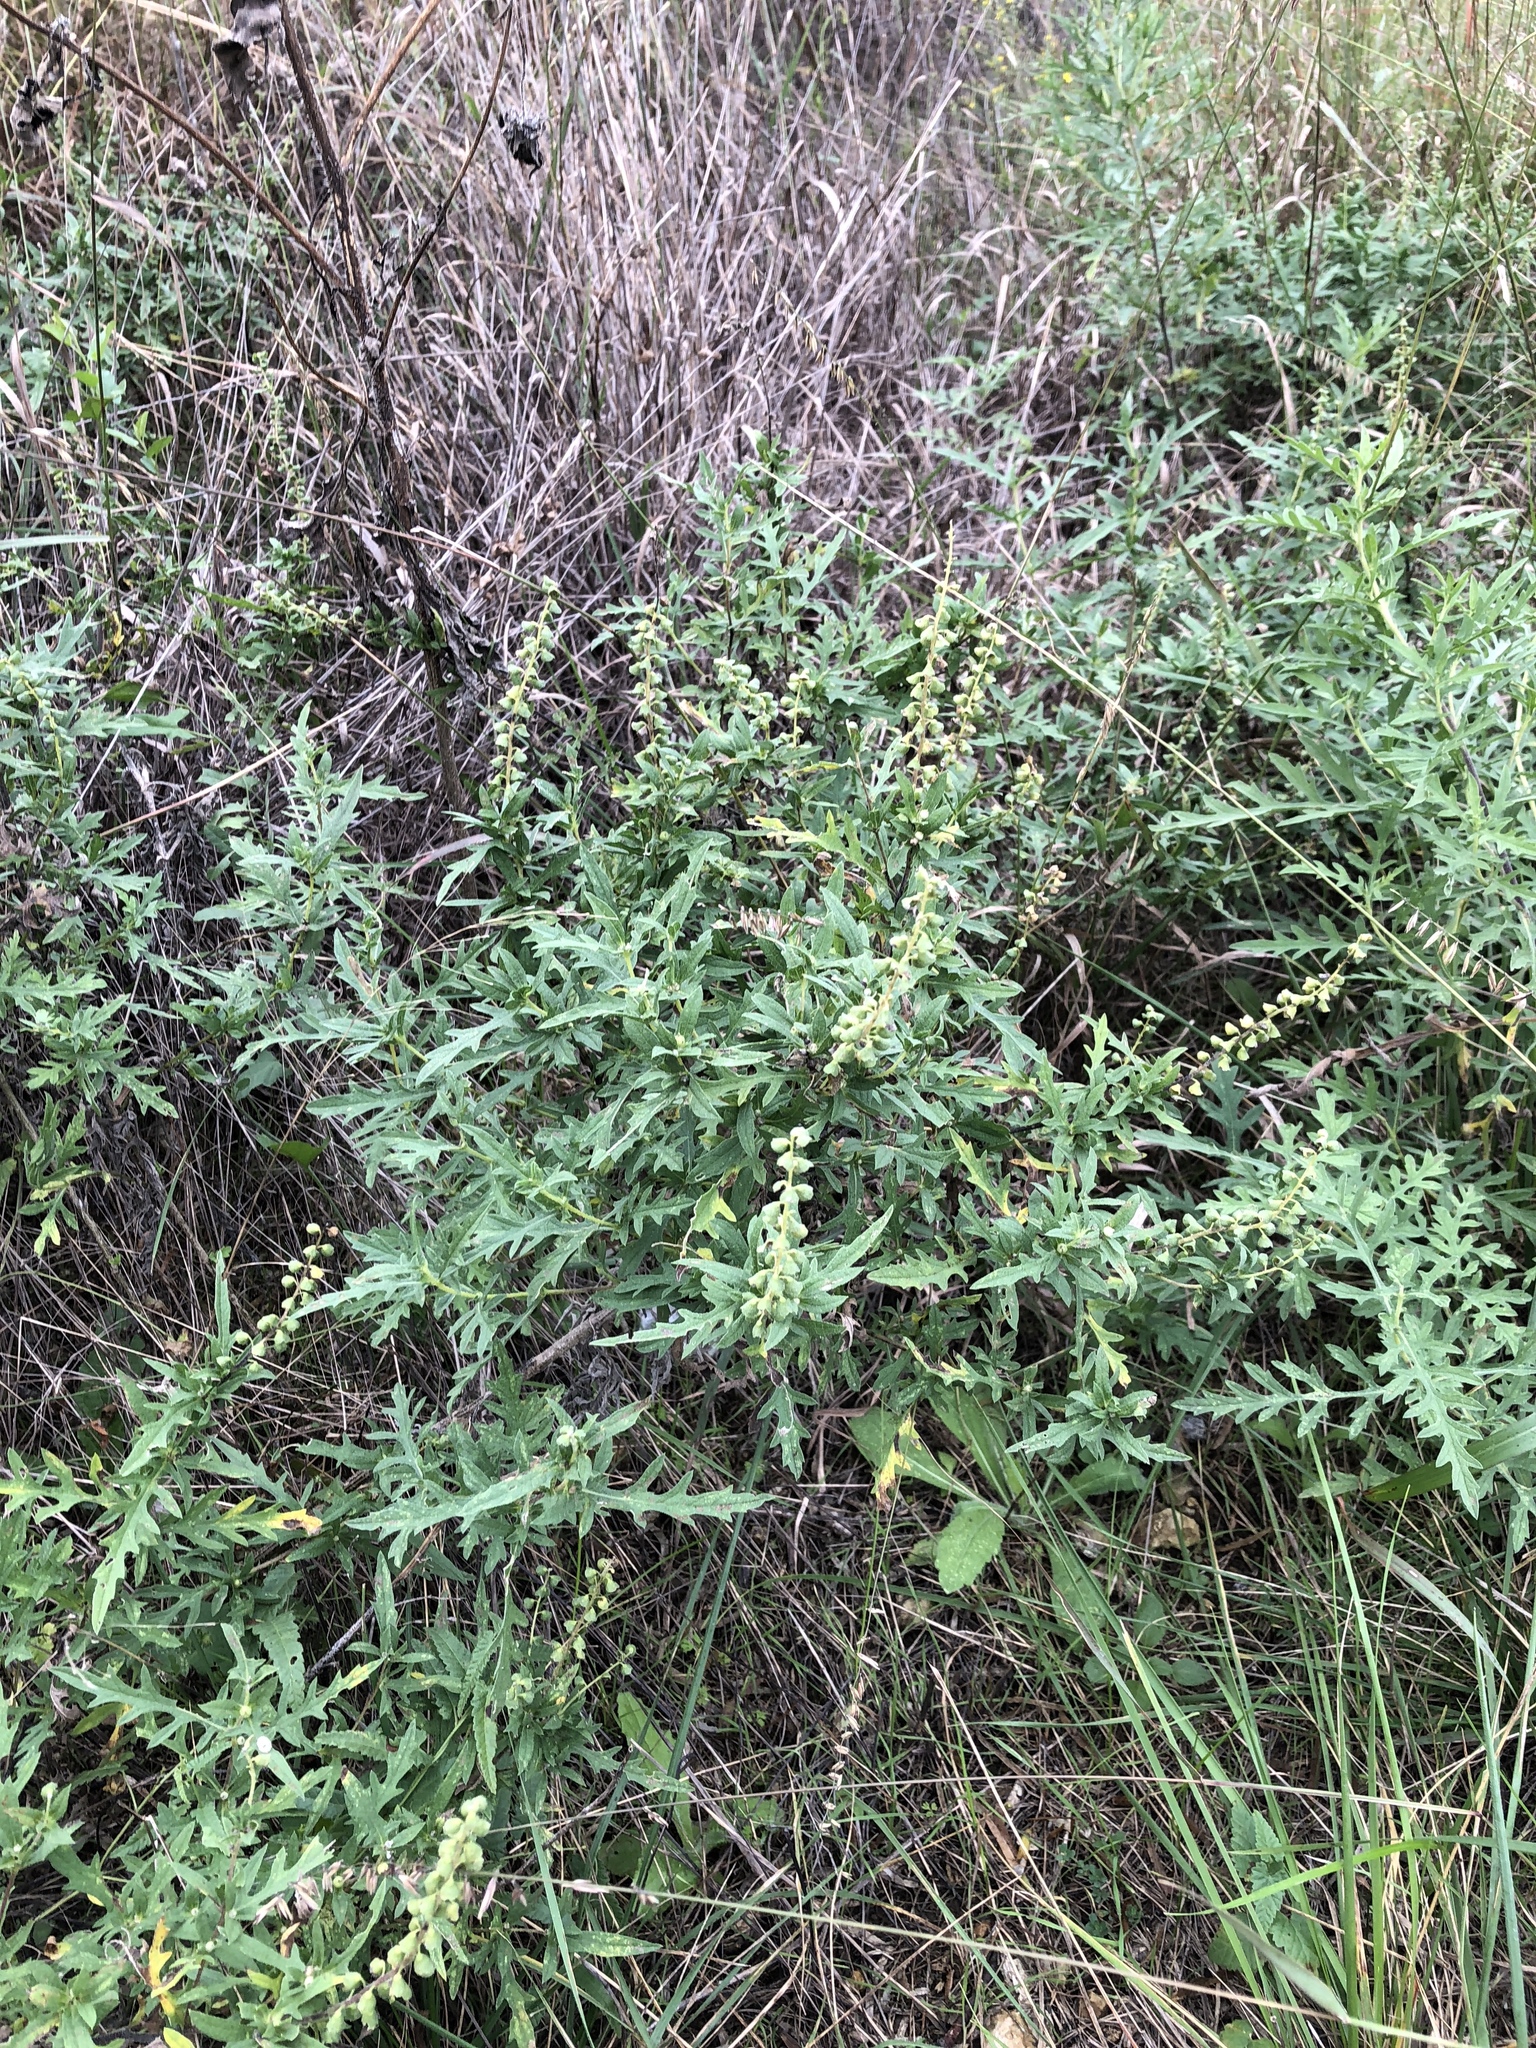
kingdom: Plantae
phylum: Tracheophyta
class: Magnoliopsida
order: Asterales
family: Asteraceae
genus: Ambrosia
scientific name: Ambrosia psilostachya
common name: Perennial ragweed
